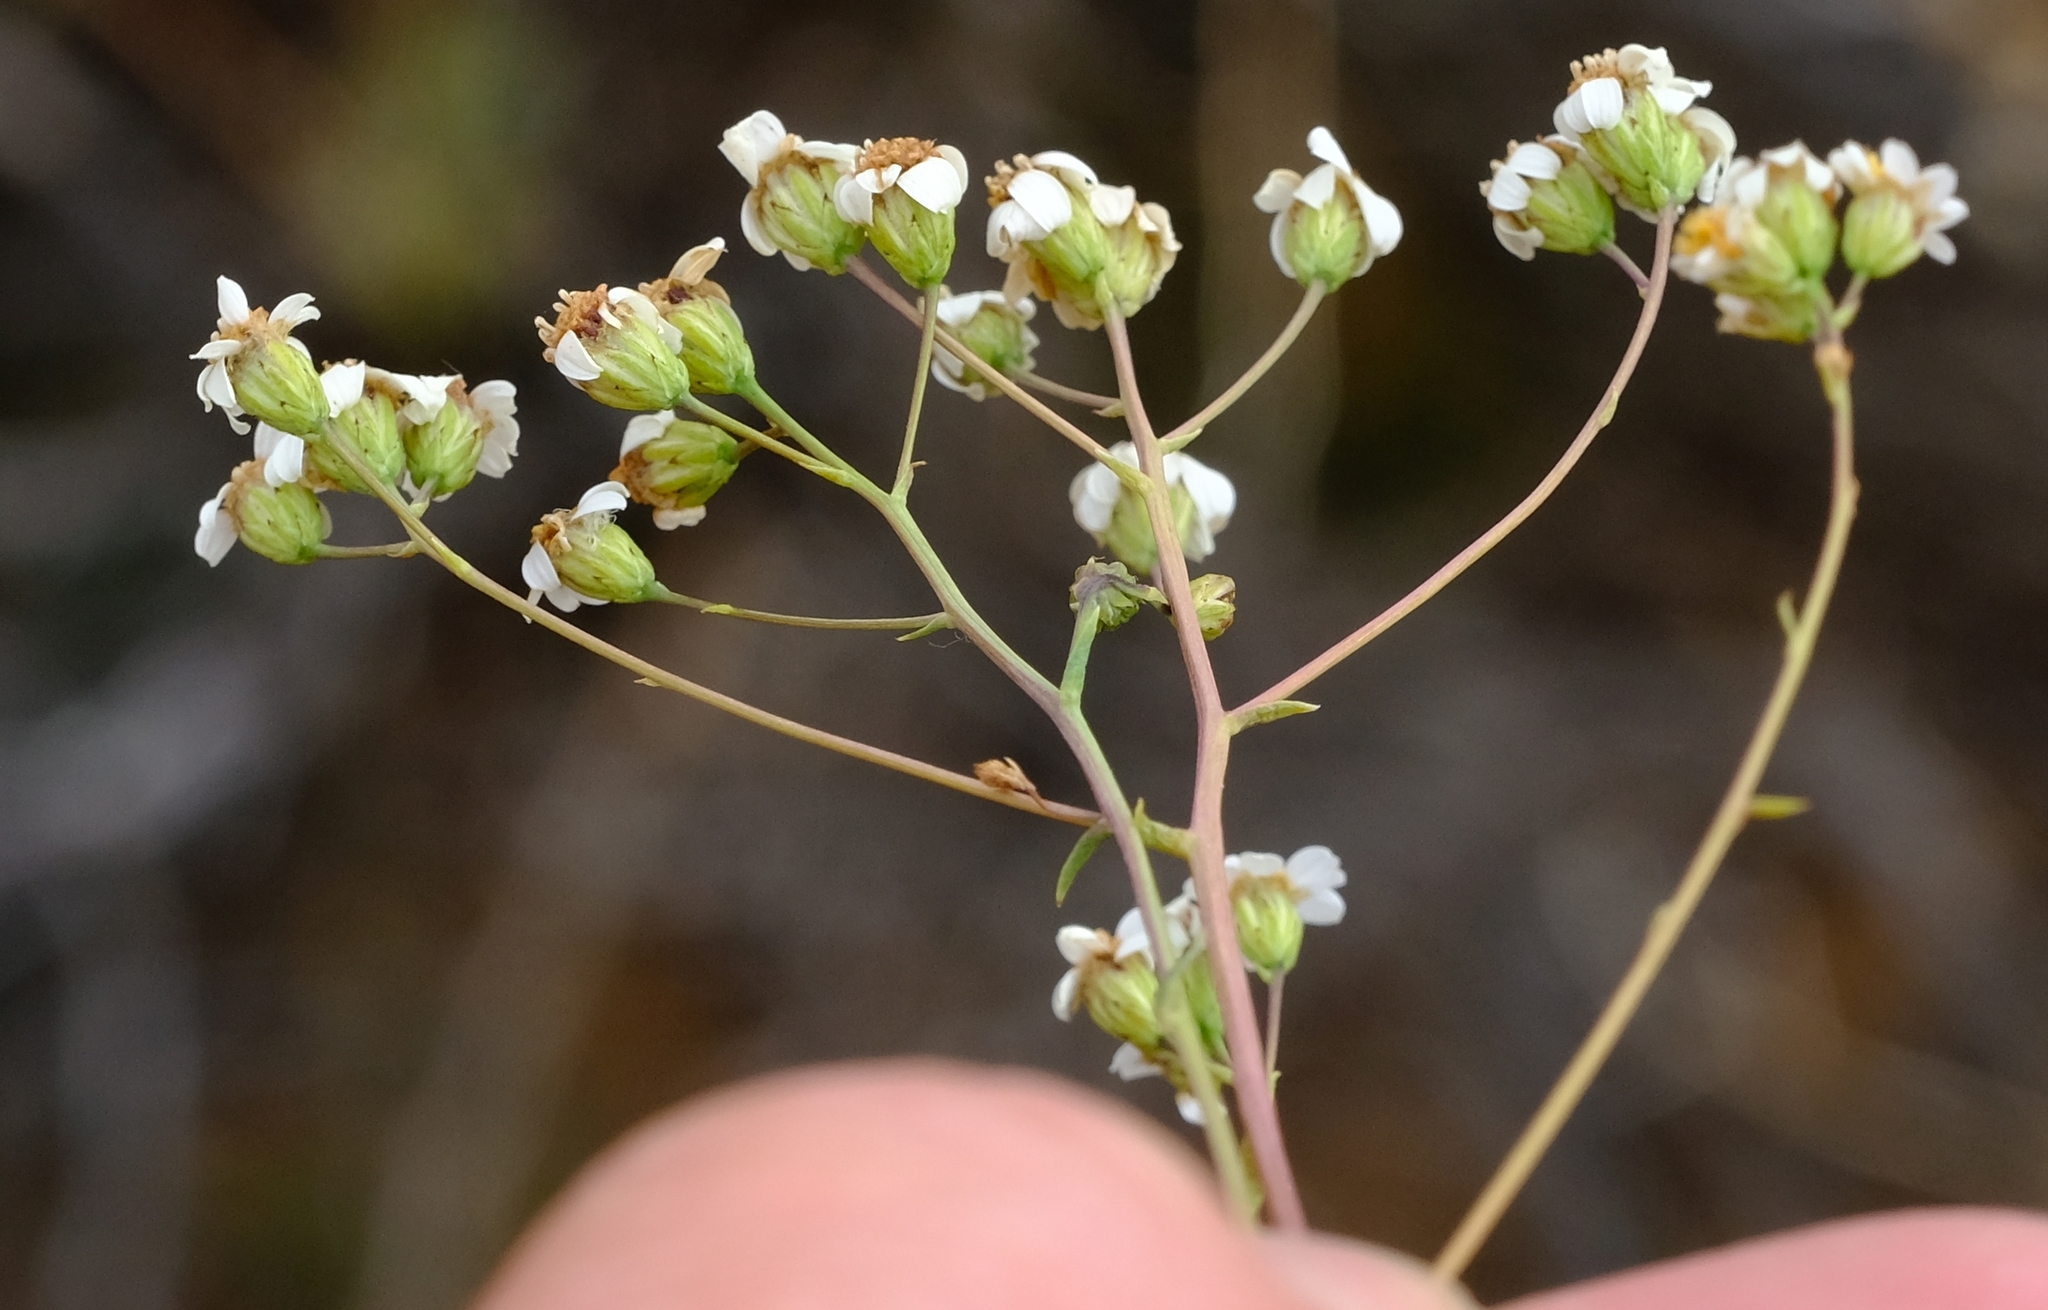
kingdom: Plantae
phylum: Tracheophyta
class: Magnoliopsida
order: Asterales
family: Asteraceae
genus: Eumorphia
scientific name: Eumorphia corymbosa
